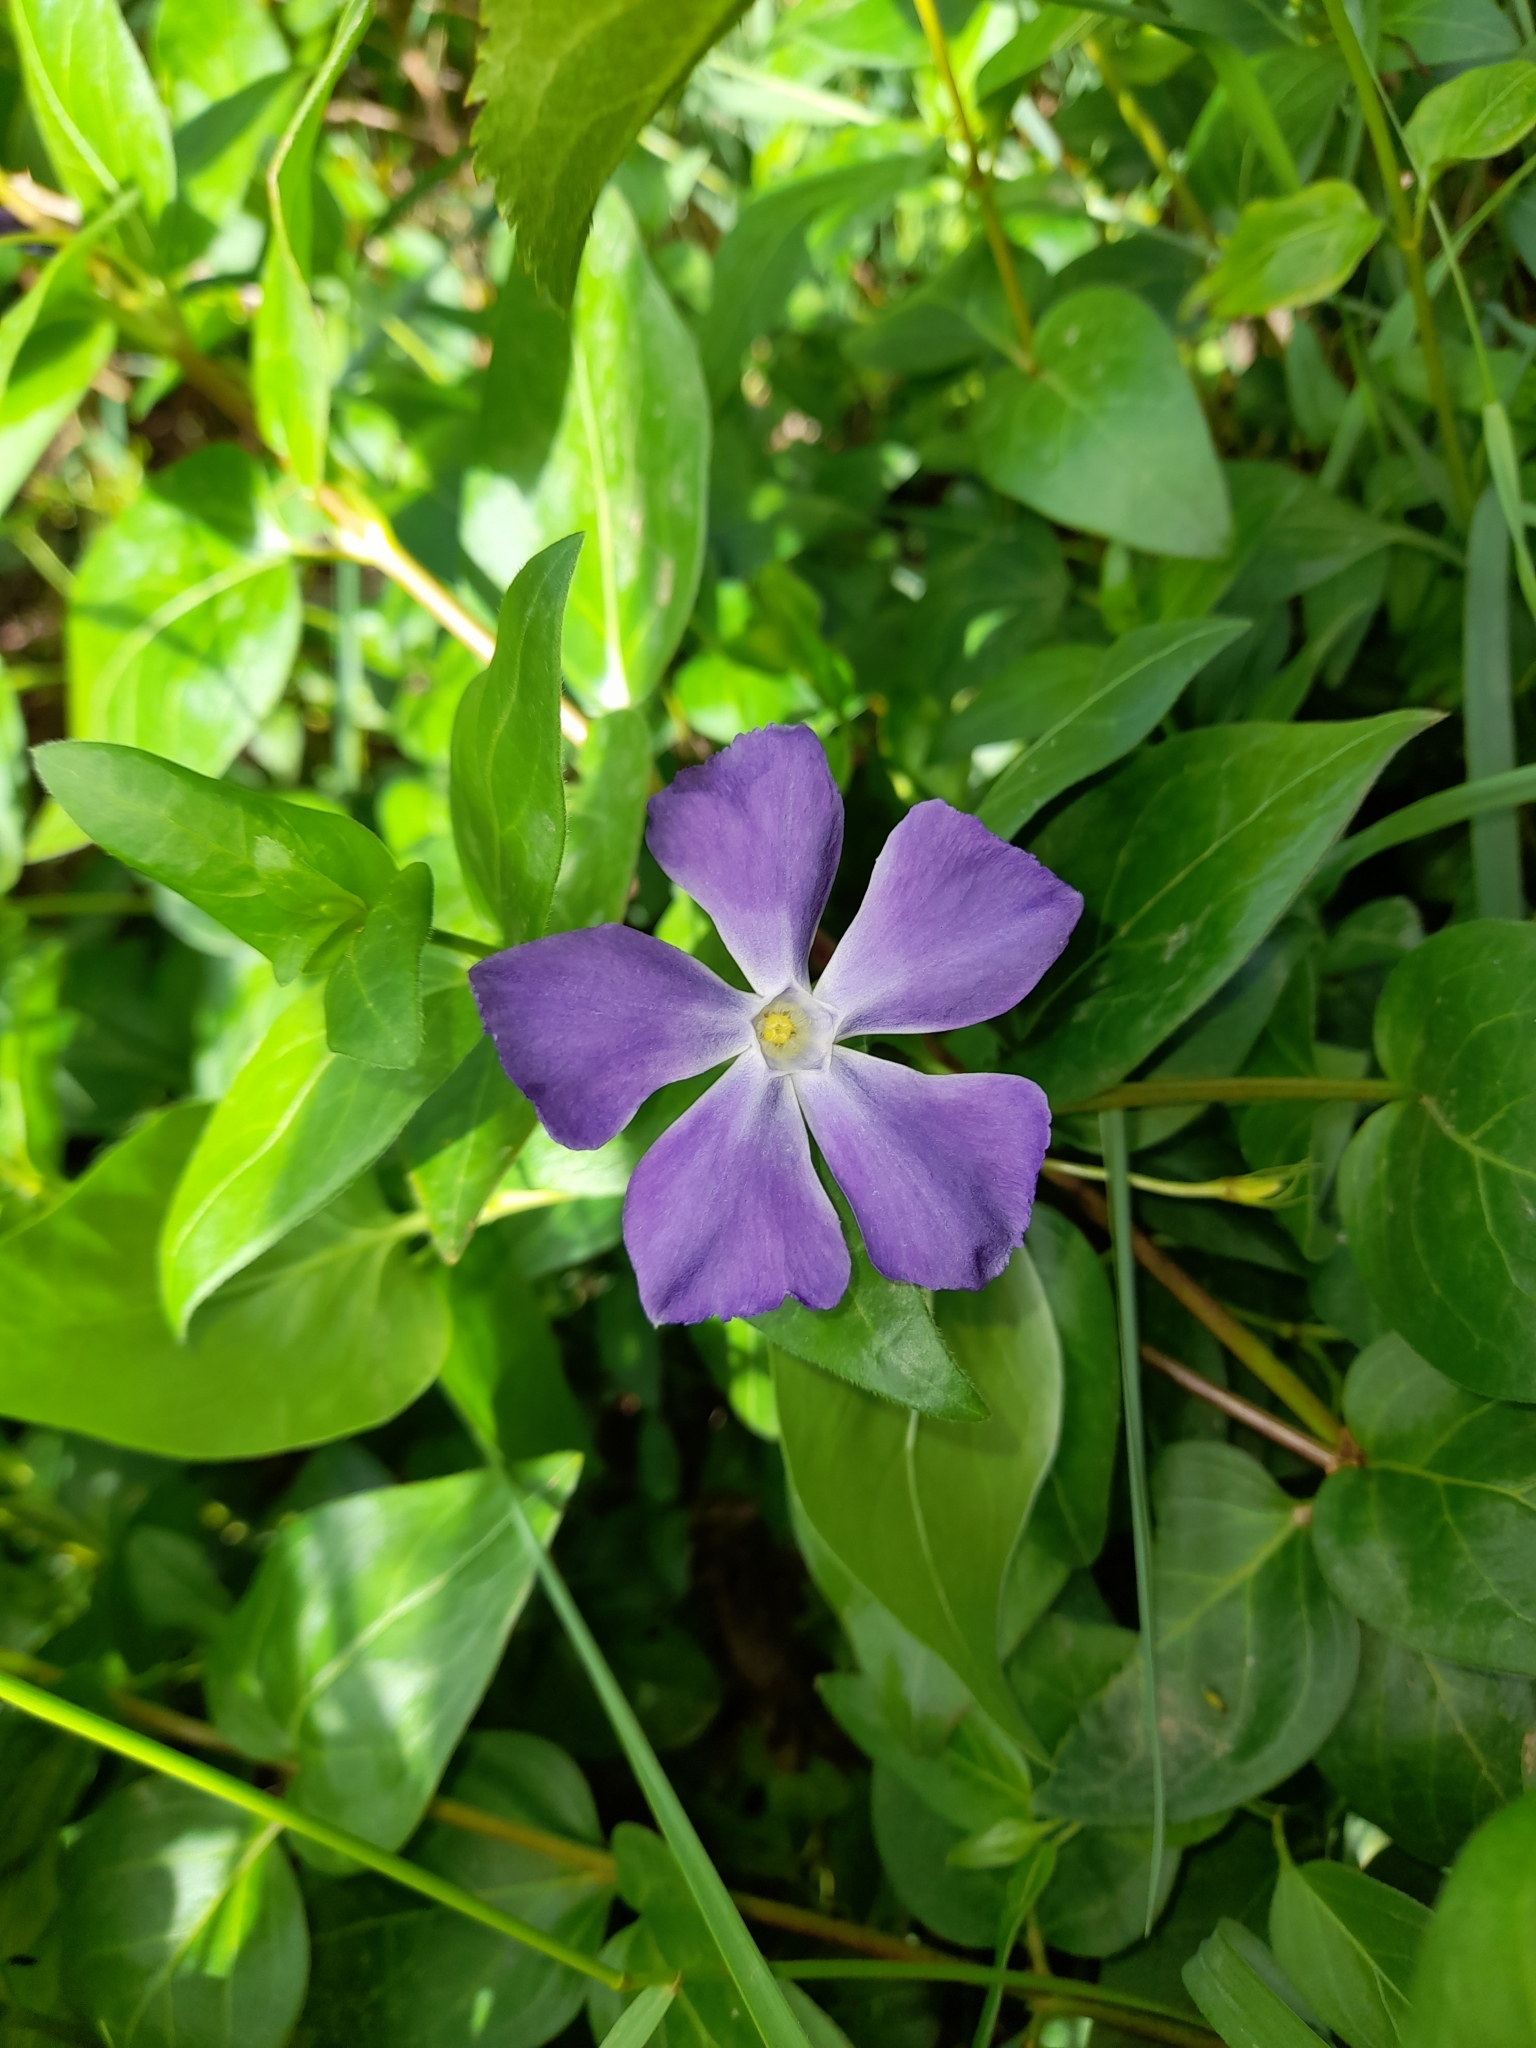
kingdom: Plantae
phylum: Tracheophyta
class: Magnoliopsida
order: Gentianales
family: Apocynaceae
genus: Vinca
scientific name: Vinca major
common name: Greater periwinkle
